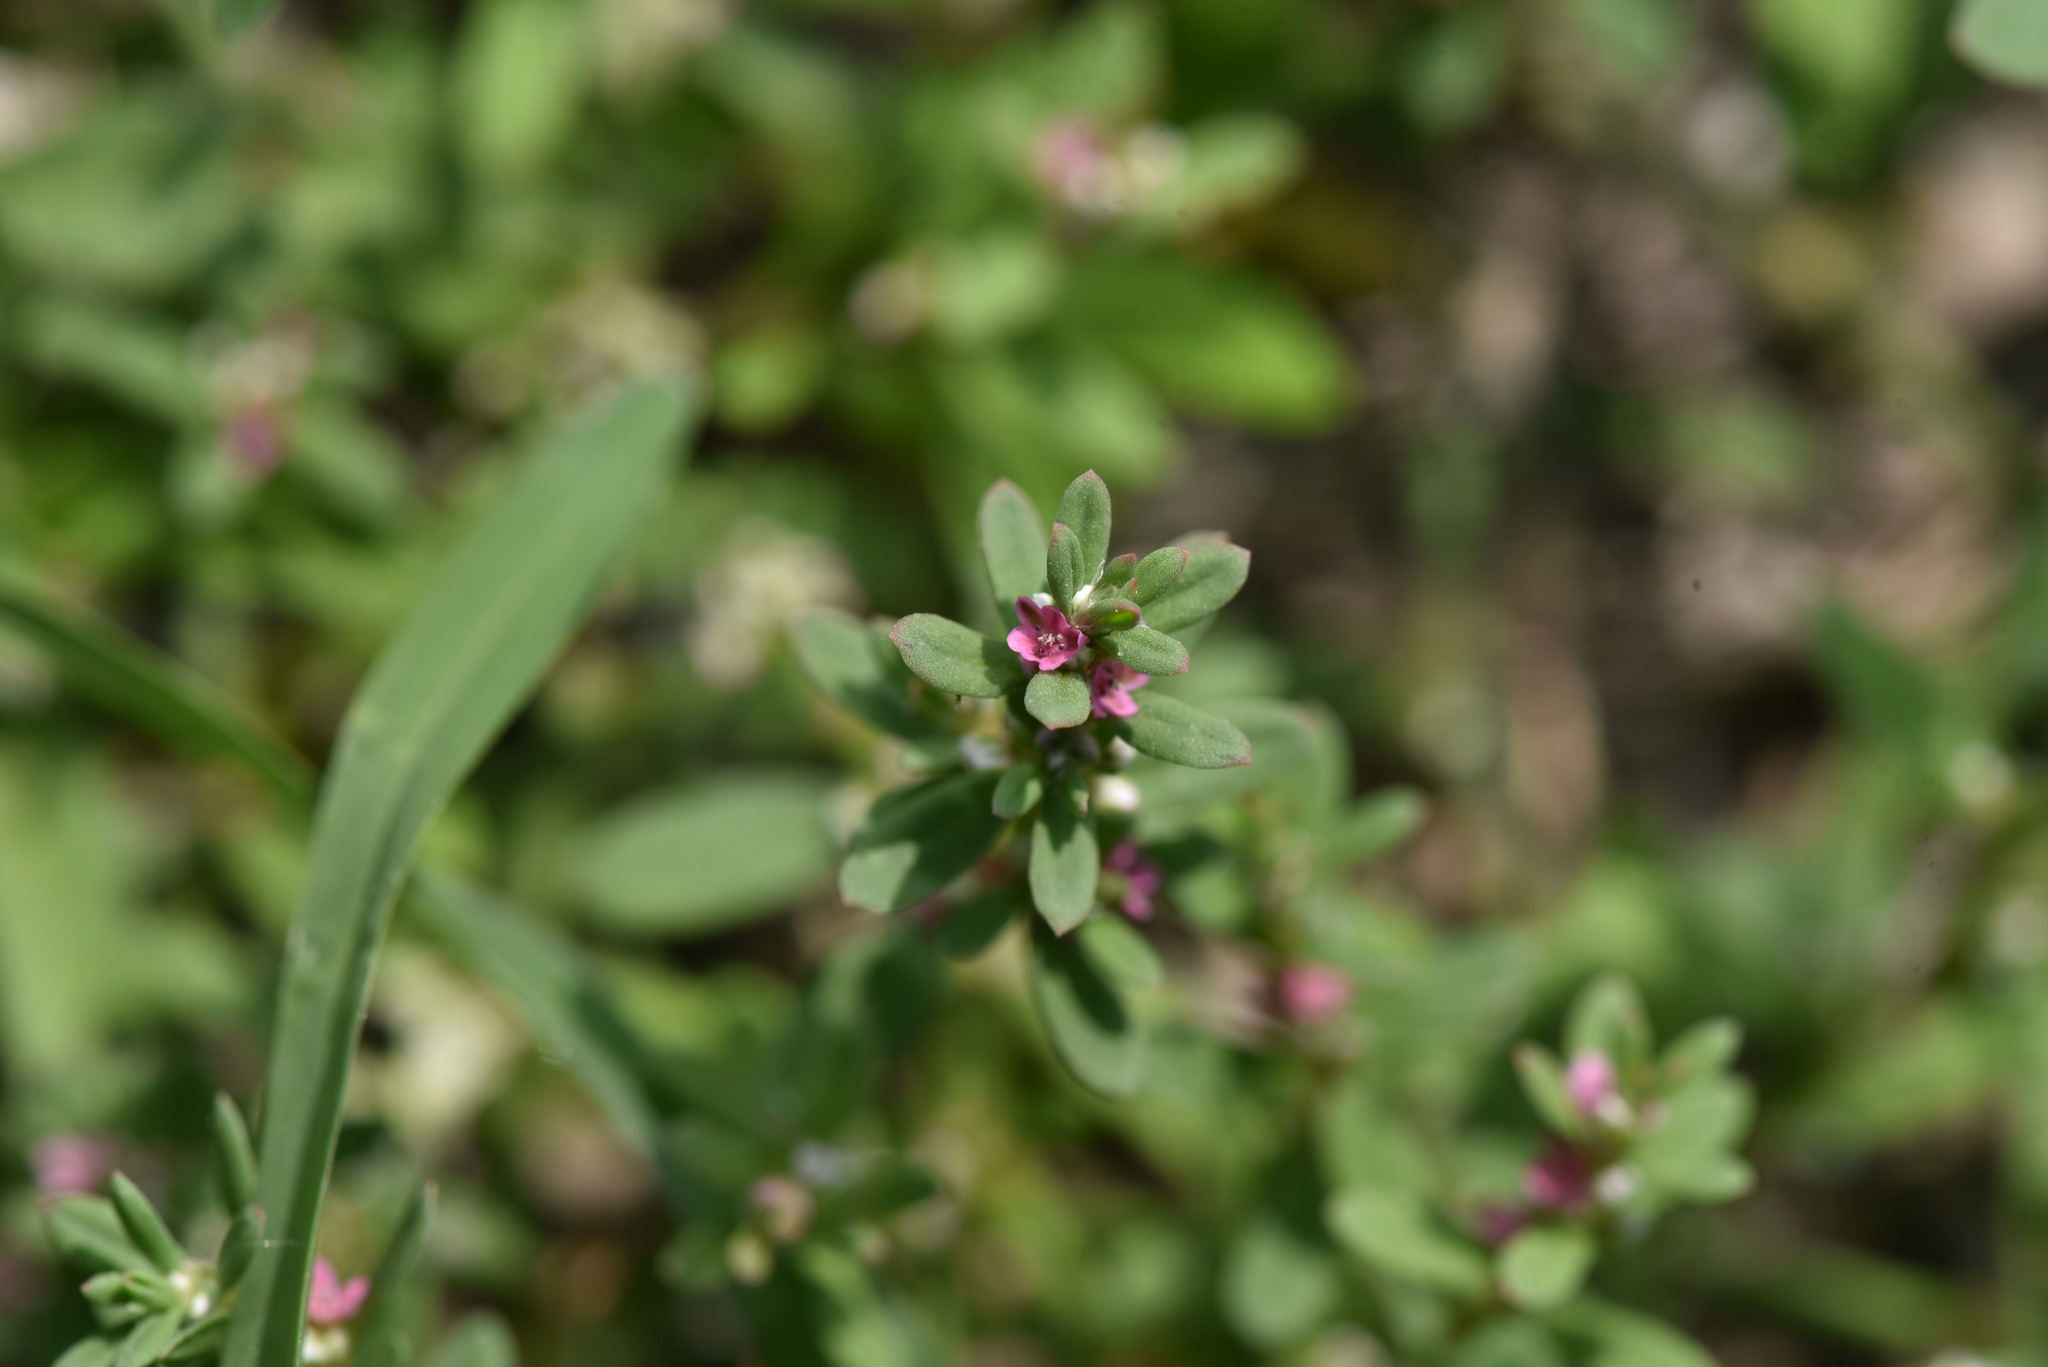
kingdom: Plantae
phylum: Tracheophyta
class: Magnoliopsida
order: Caryophyllales
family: Polygonaceae
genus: Polygonum
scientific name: Polygonum plebeium
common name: Common knotweed
